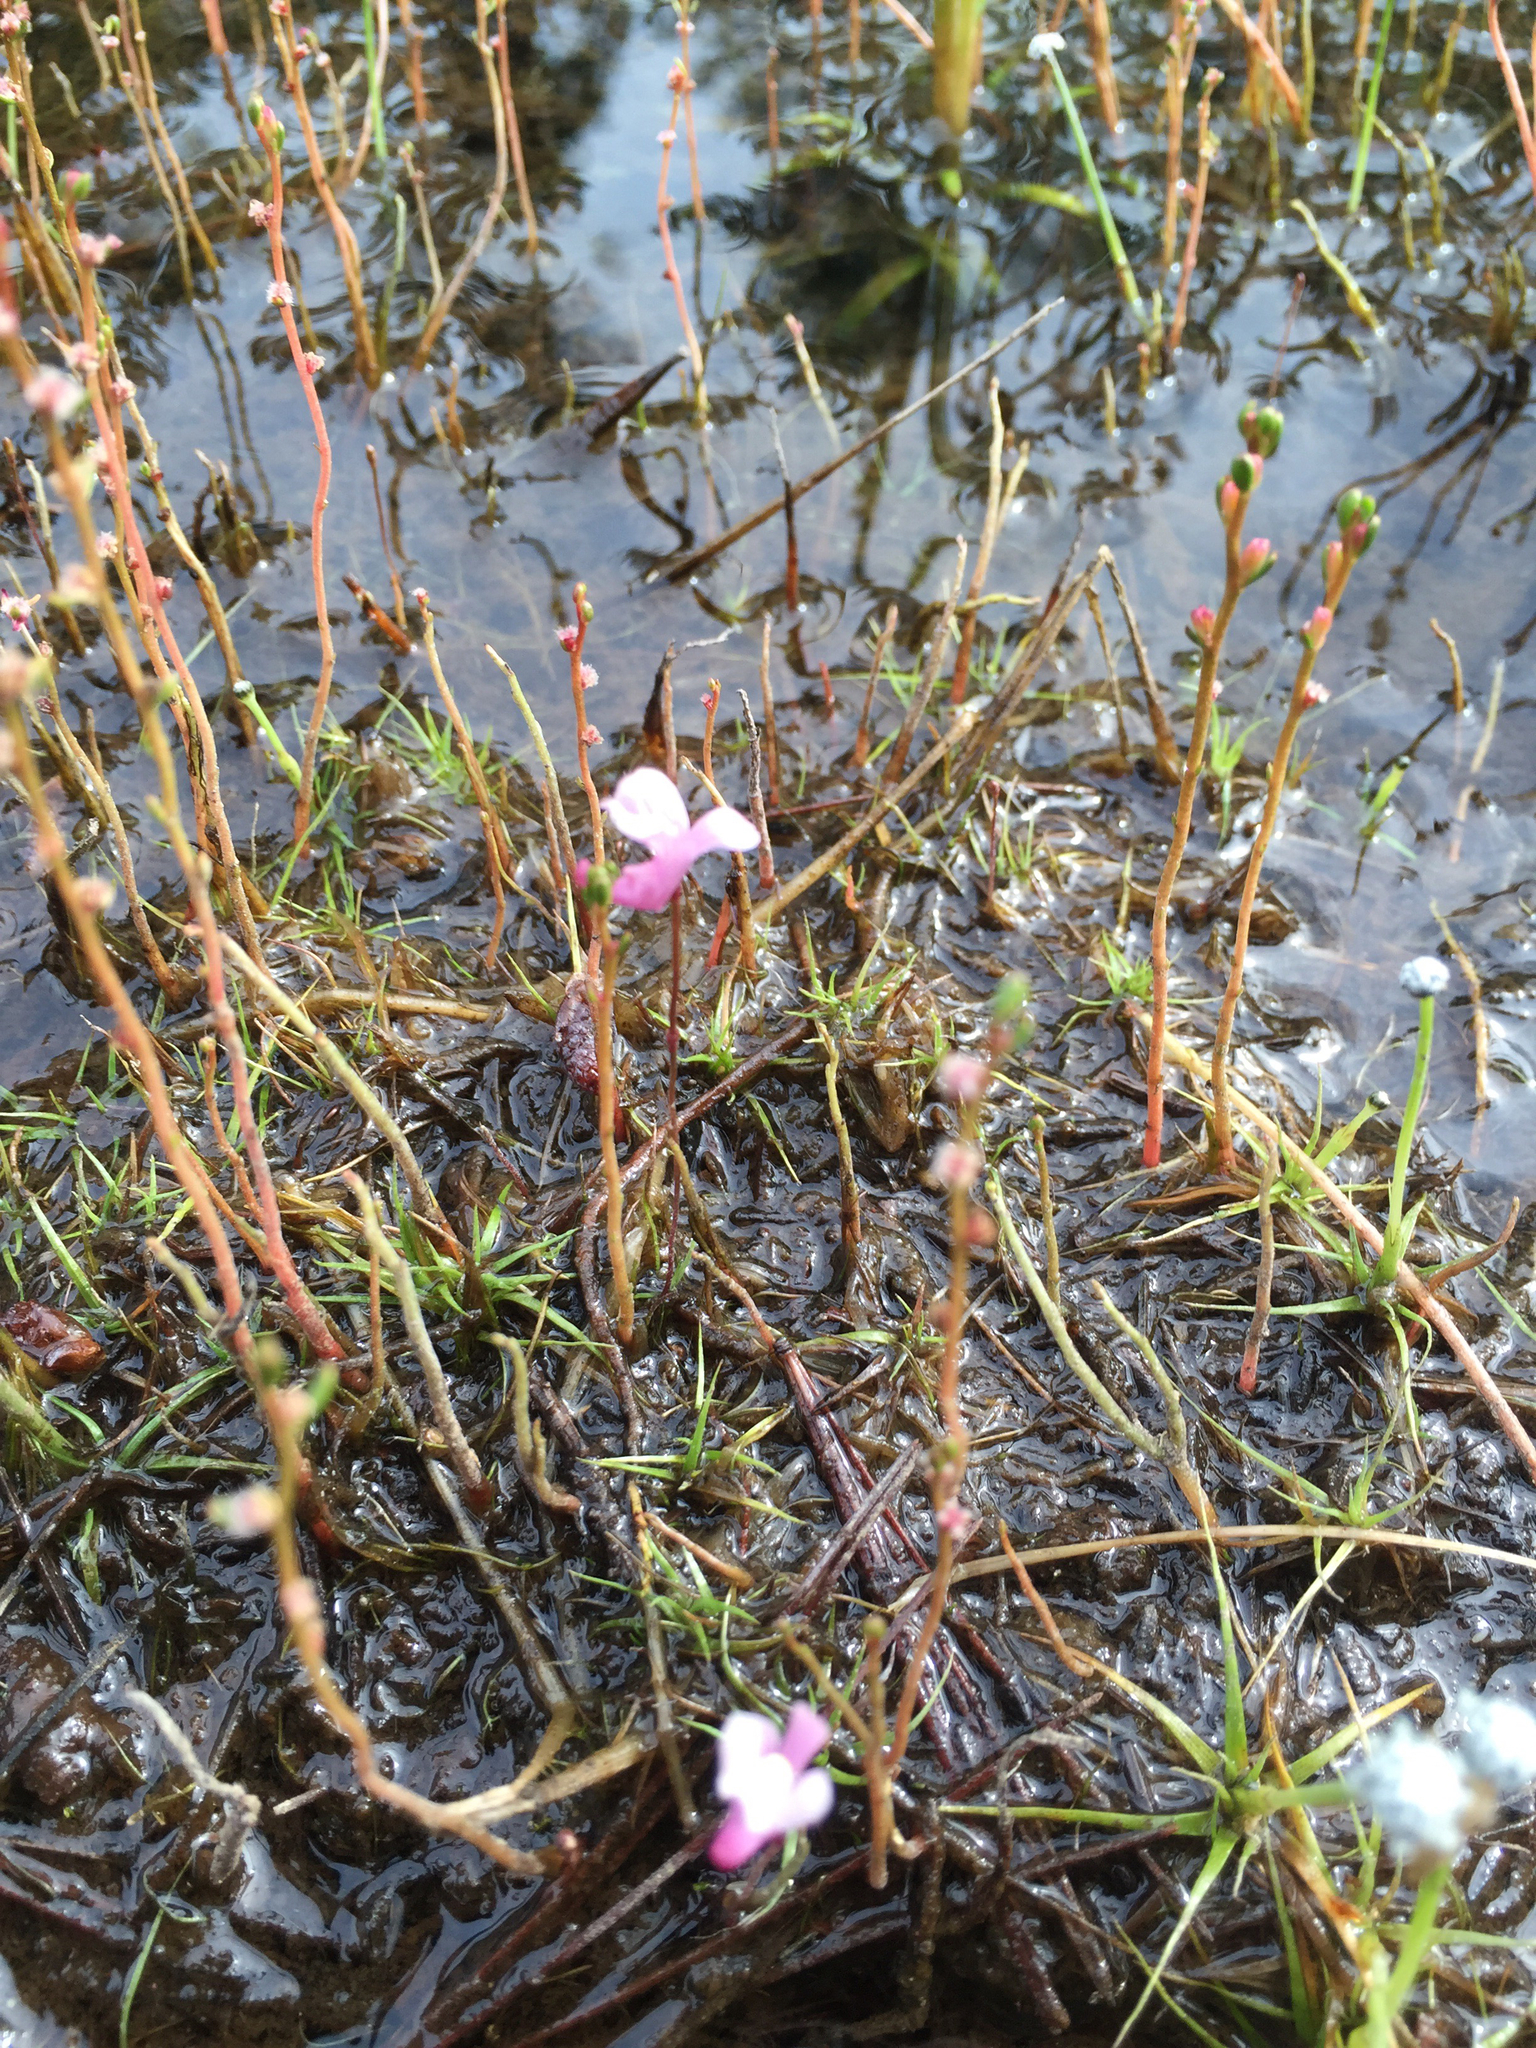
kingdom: Plantae
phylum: Tracheophyta
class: Magnoliopsida
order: Lamiales
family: Lentibulariaceae
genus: Utricularia
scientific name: Utricularia resupinata
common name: Northeastern bladderwort
